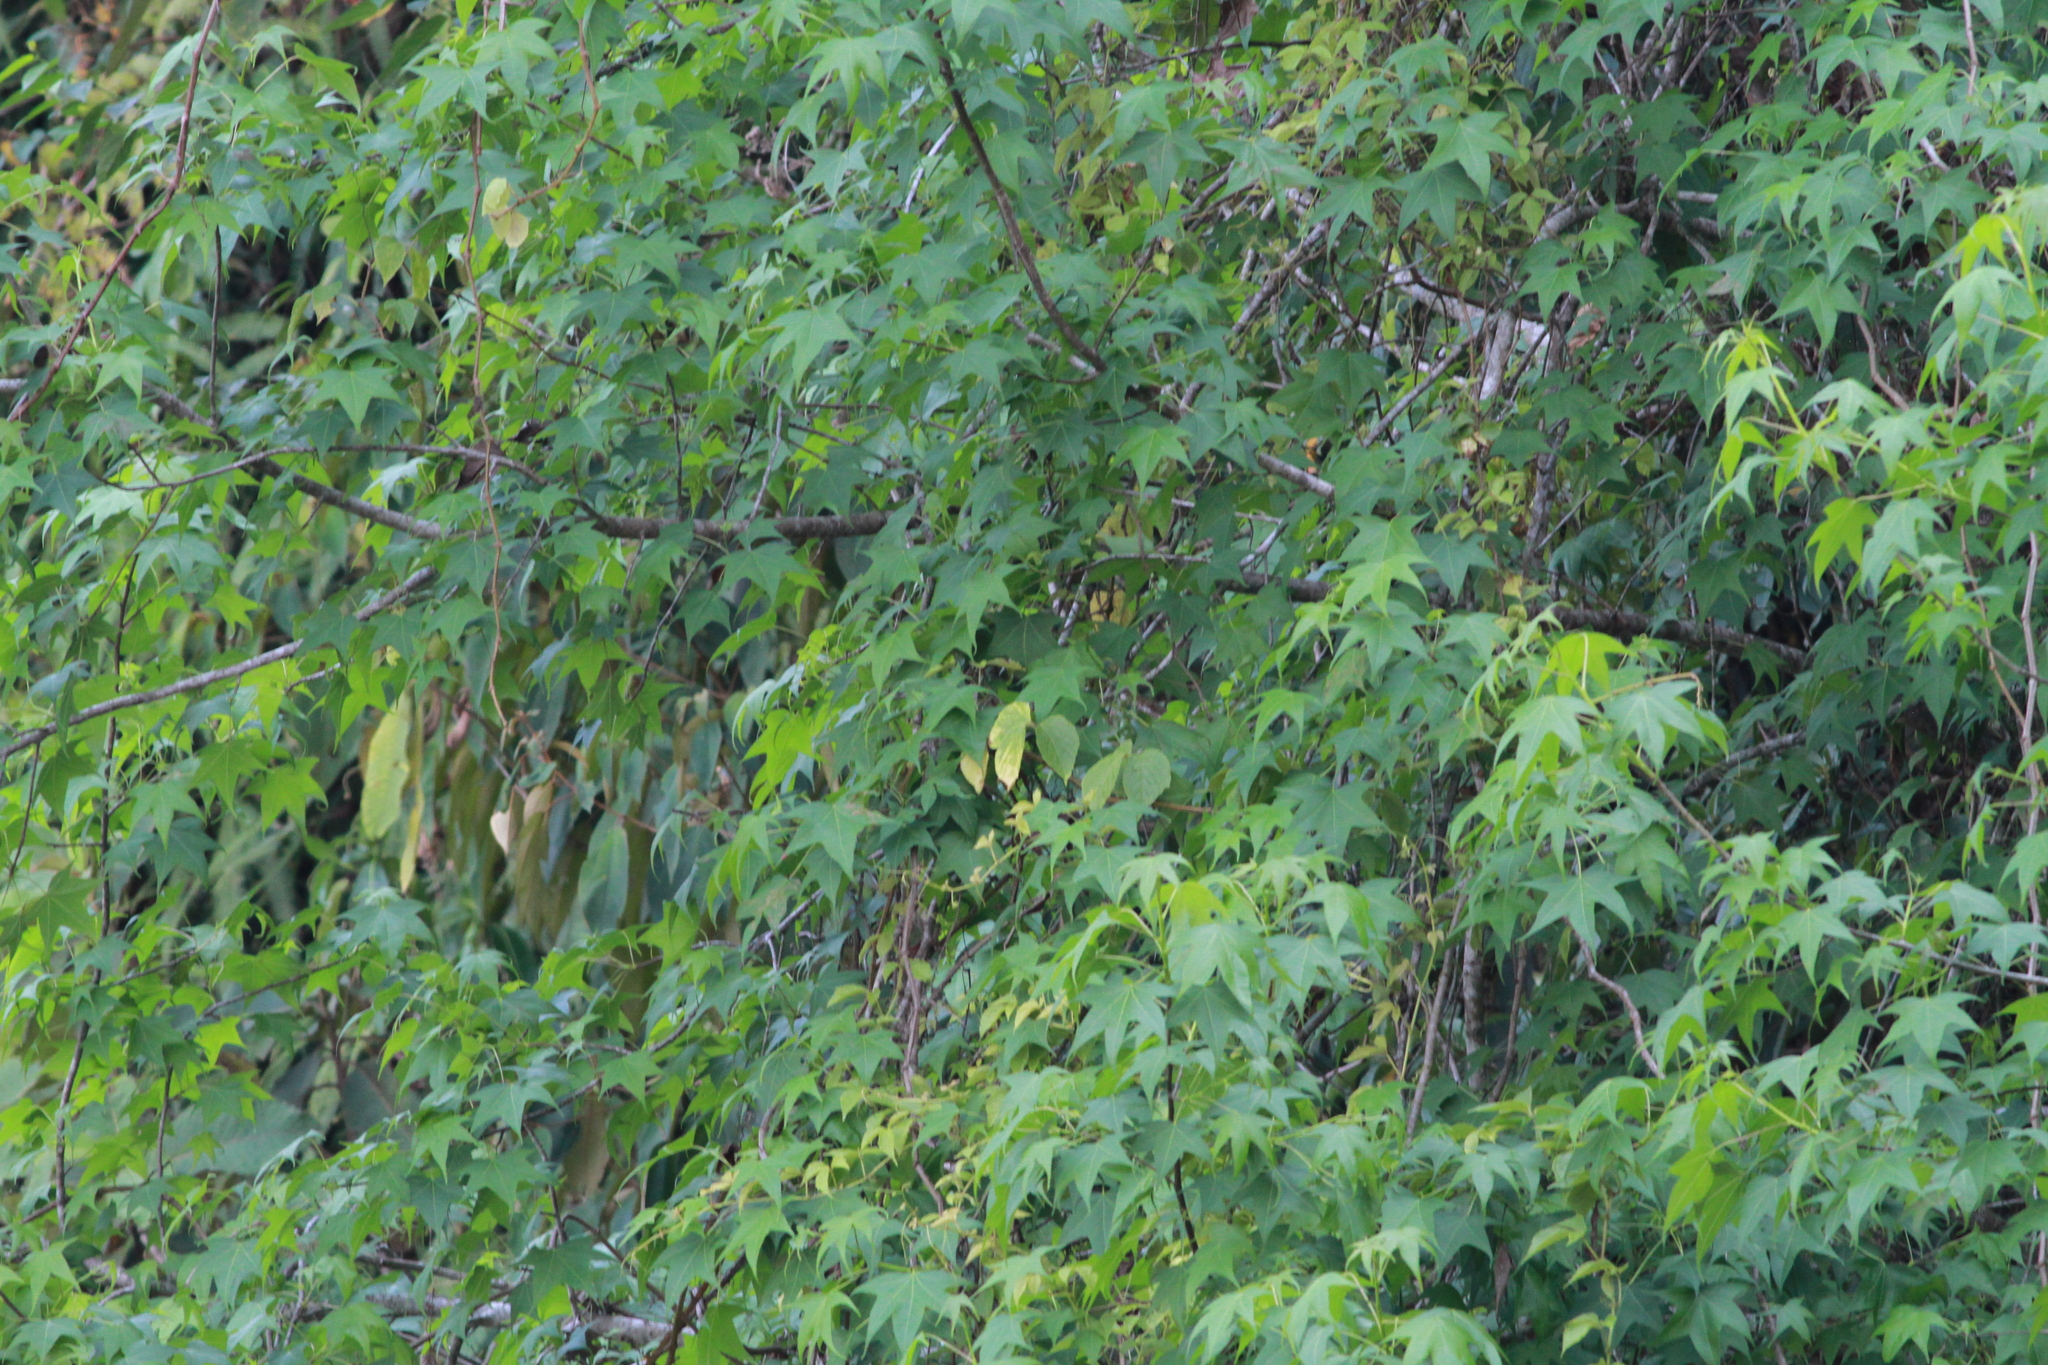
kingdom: Plantae
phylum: Tracheophyta
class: Magnoliopsida
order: Saxifragales
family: Altingiaceae
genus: Liquidambar
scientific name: Liquidambar styraciflua
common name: Sweet gum
